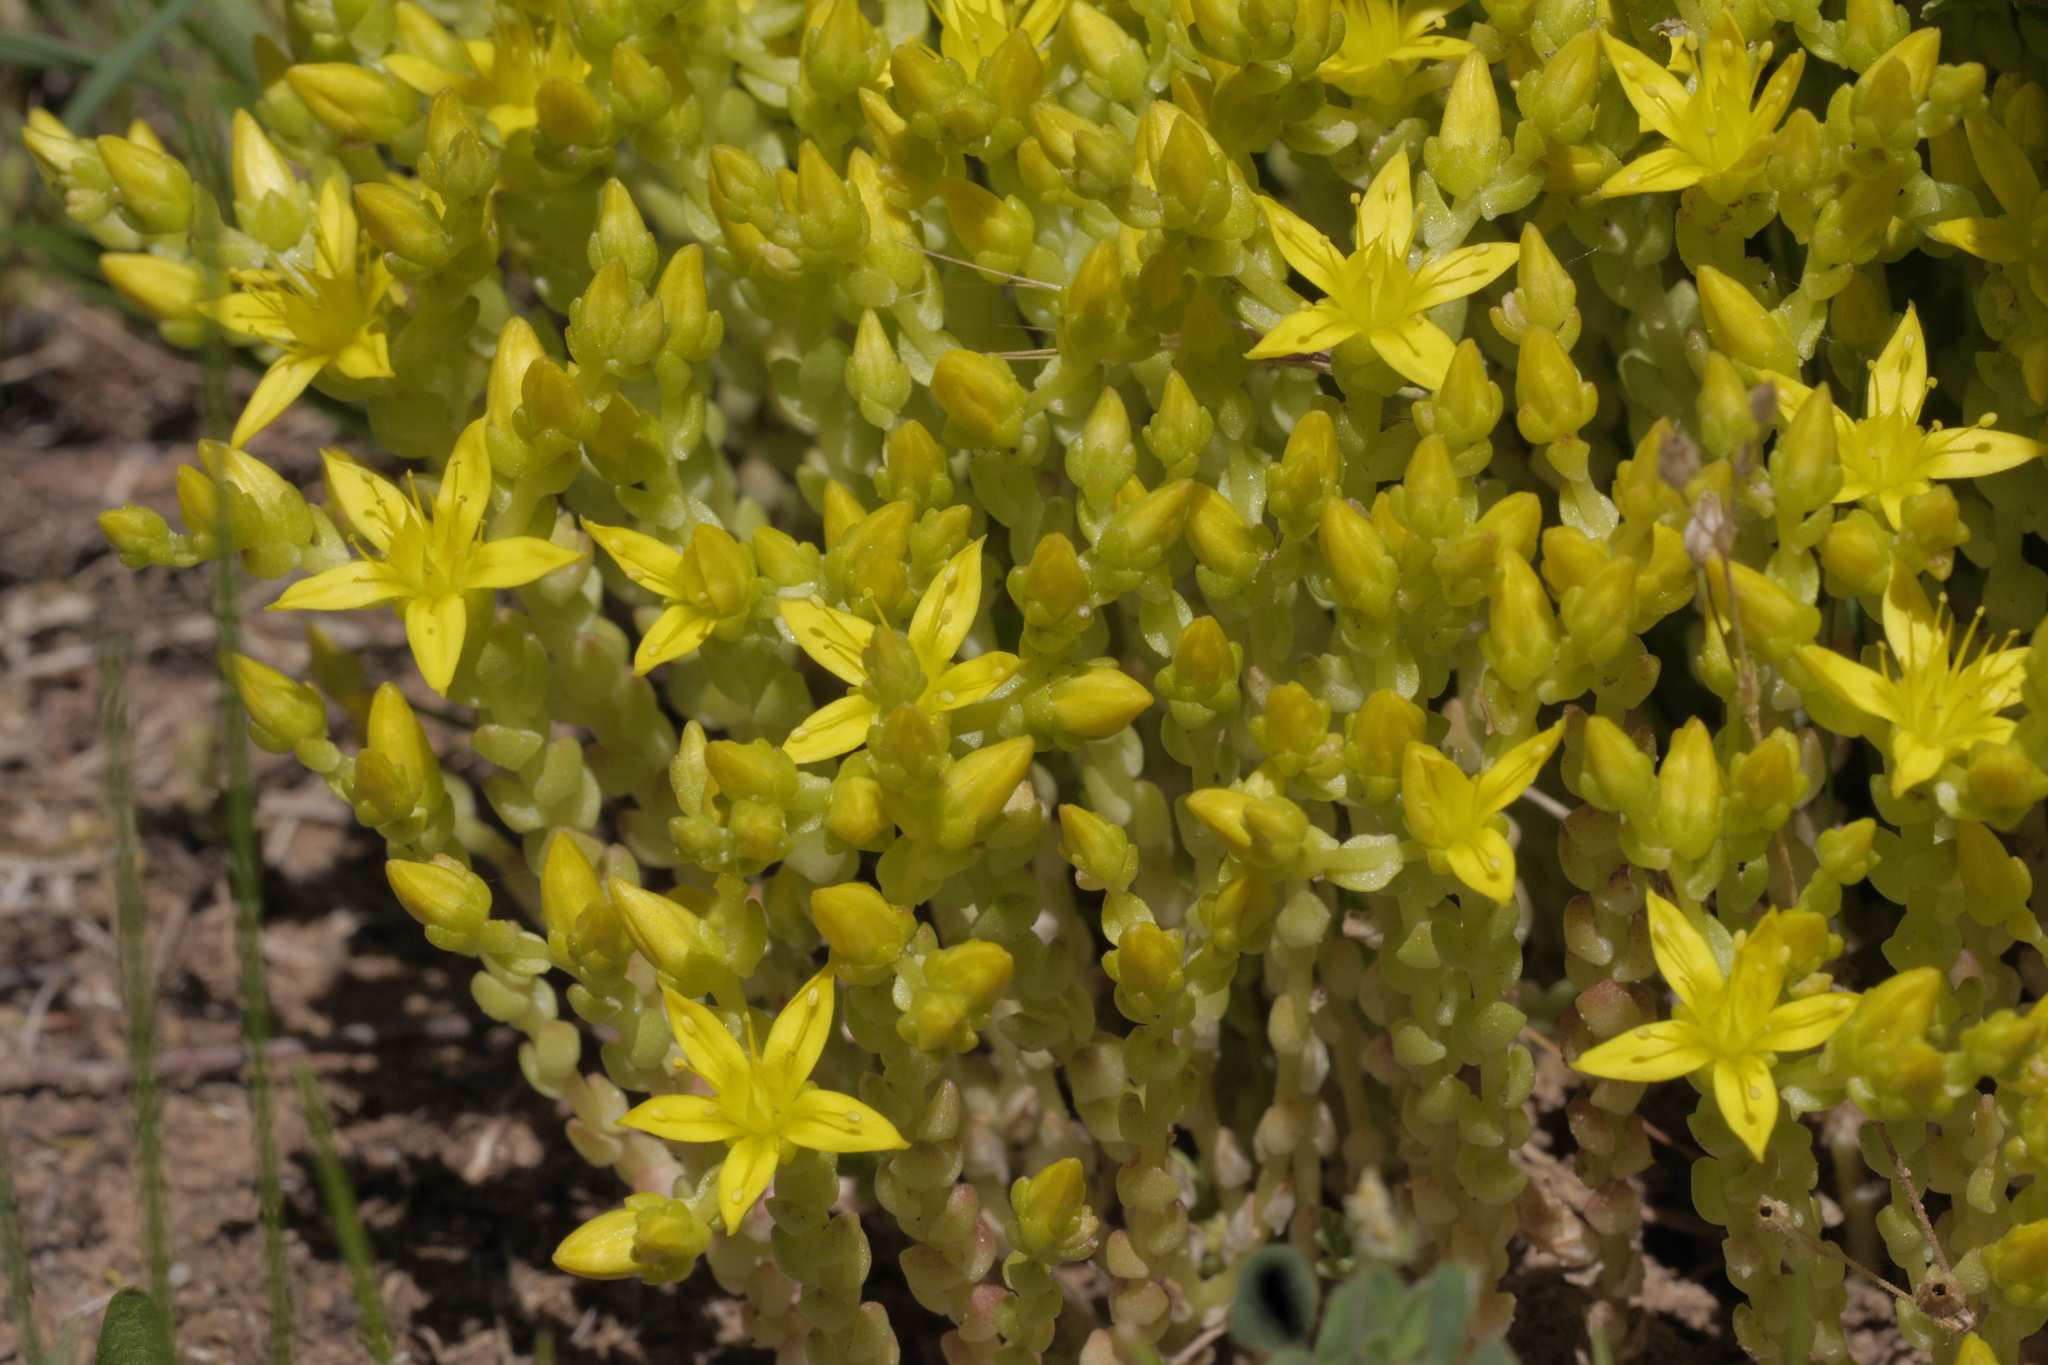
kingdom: Plantae
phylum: Tracheophyta
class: Magnoliopsida
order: Saxifragales
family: Crassulaceae
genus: Sedum
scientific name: Sedum acre
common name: Biting stonecrop
